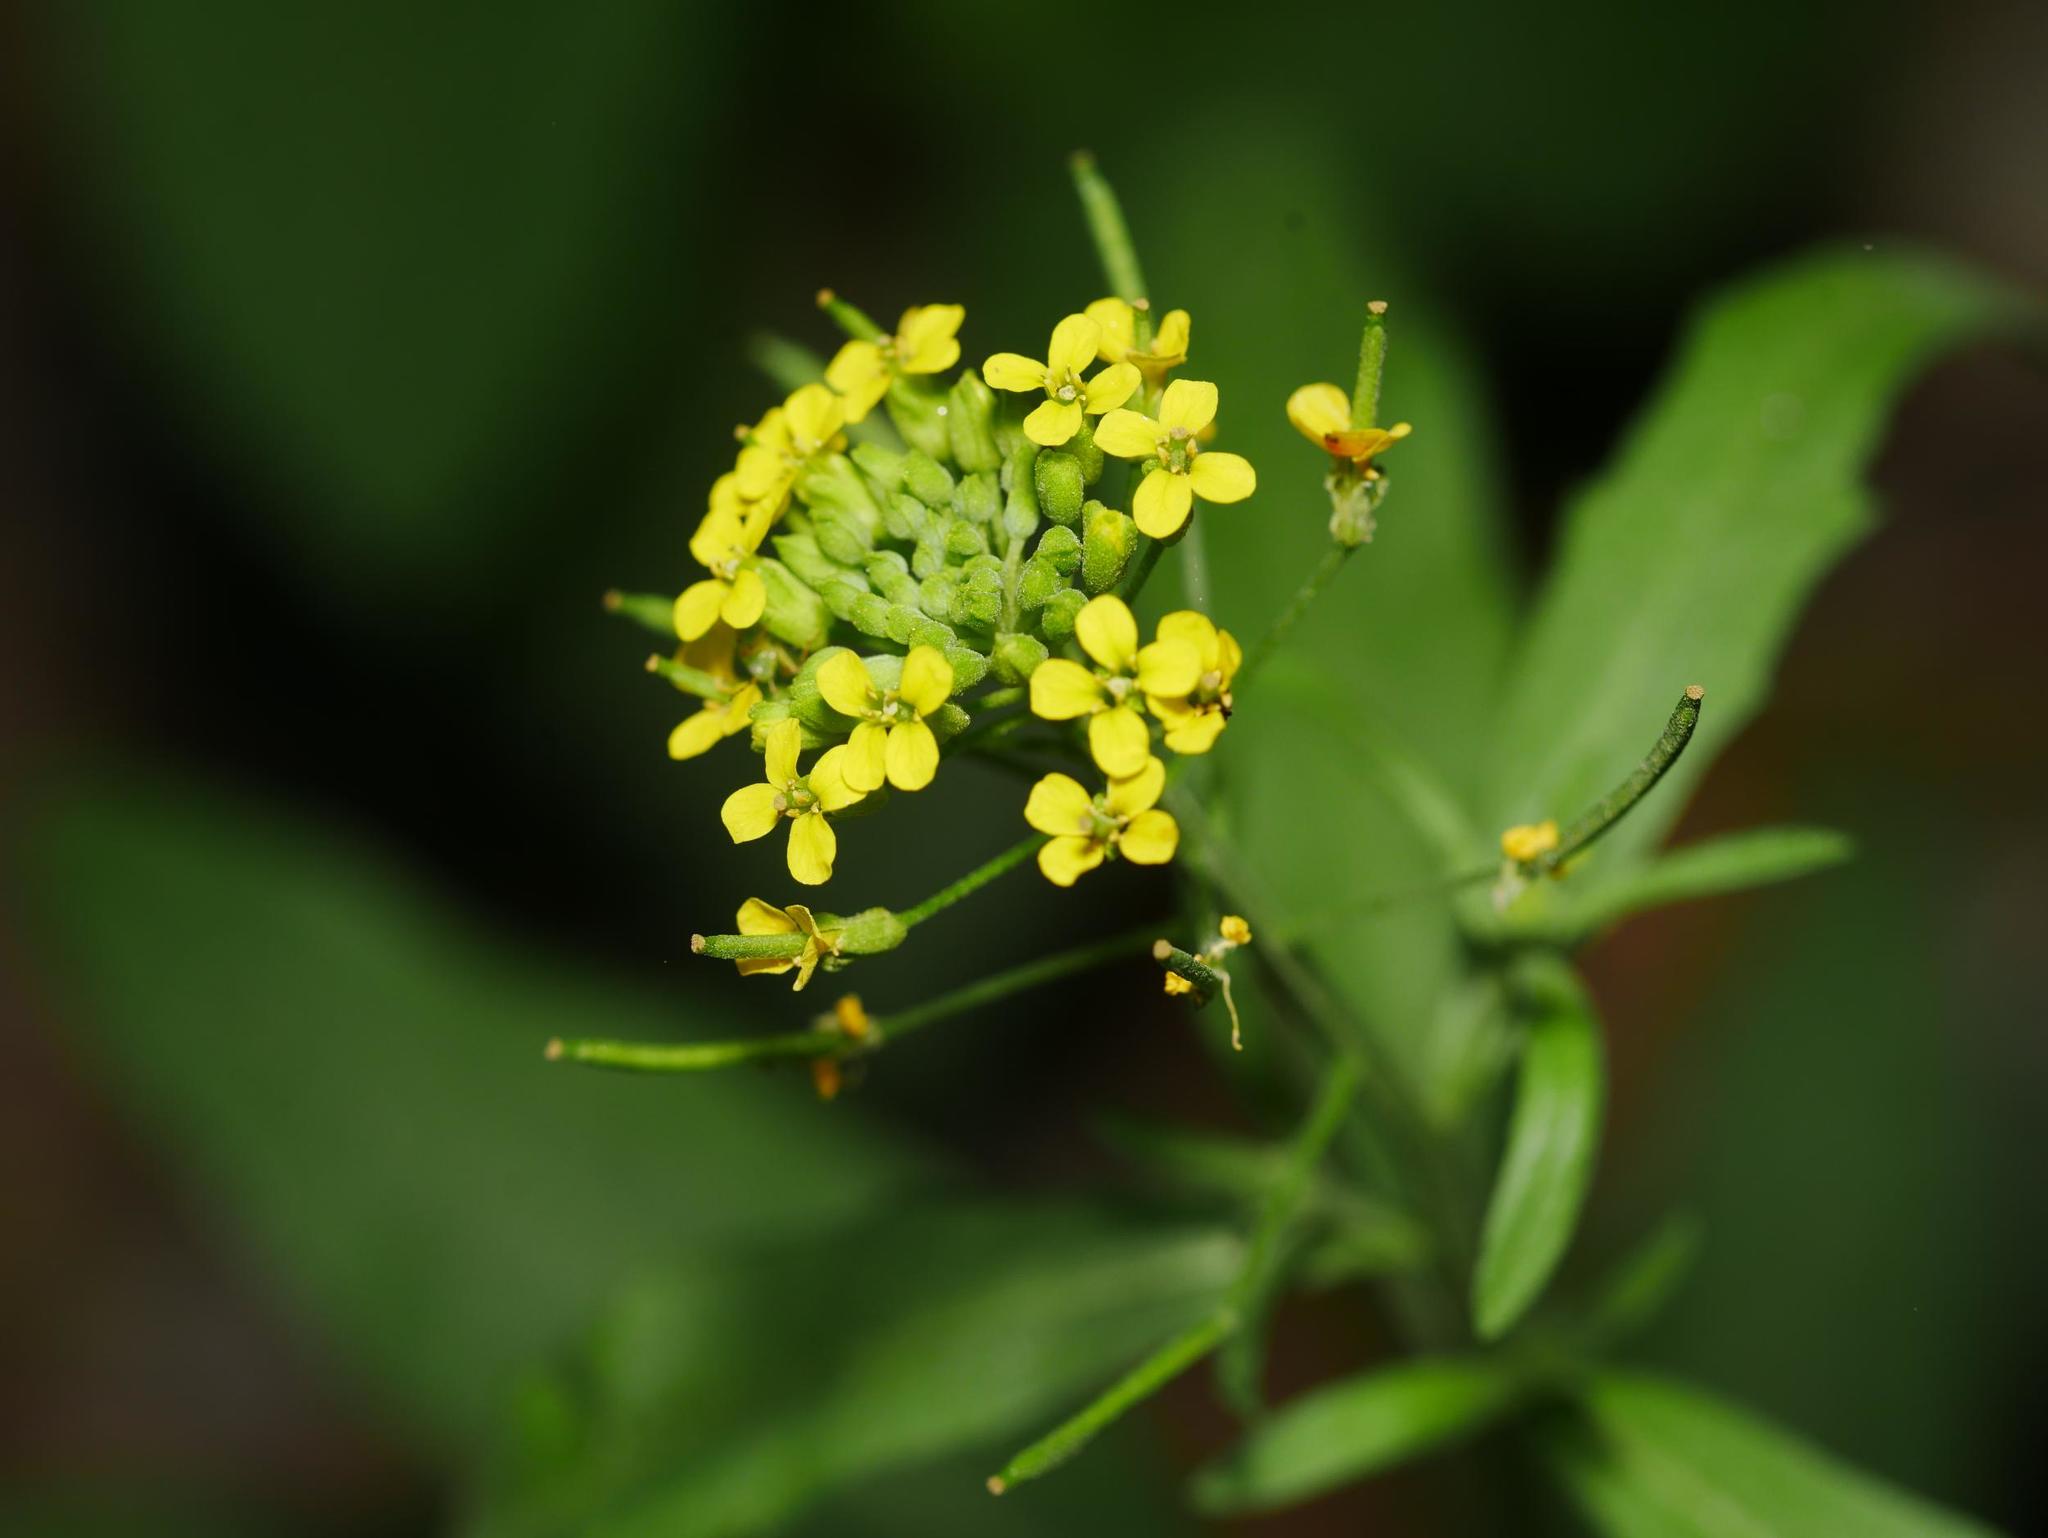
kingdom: Plantae
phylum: Tracheophyta
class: Magnoliopsida
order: Brassicales
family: Brassicaceae
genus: Erysimum
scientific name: Erysimum cheiranthoides
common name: Treacle mustard
